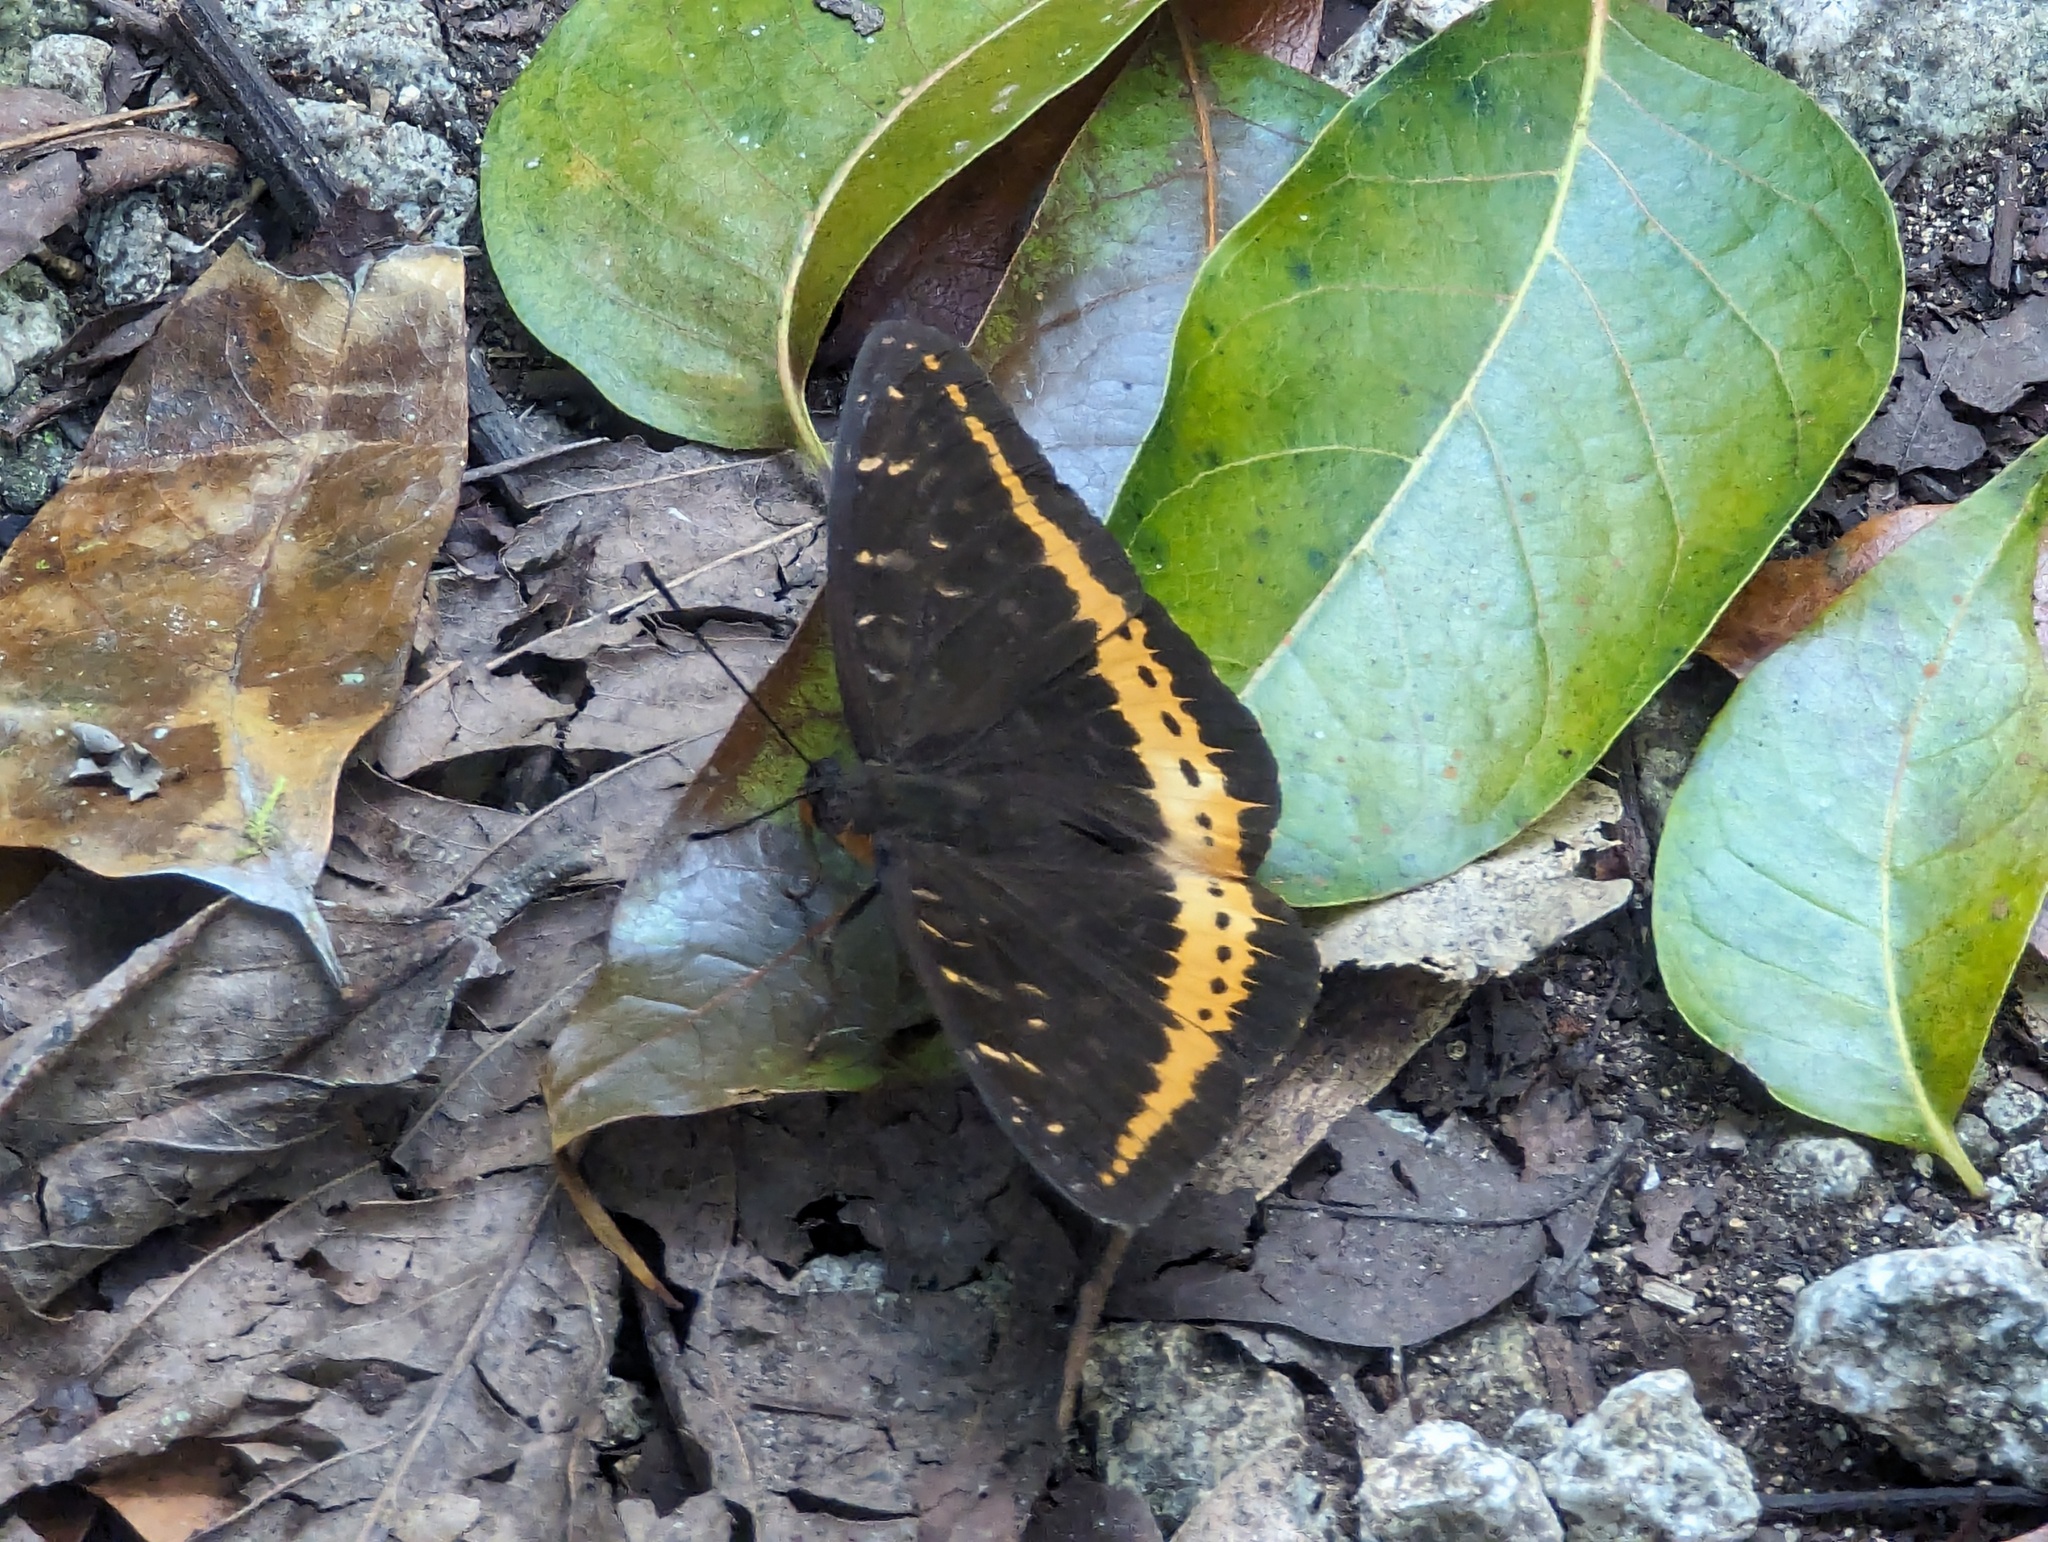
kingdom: Animalia
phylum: Arthropoda
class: Insecta
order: Lepidoptera
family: Nymphalidae
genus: Lexias
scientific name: Lexias panopus
